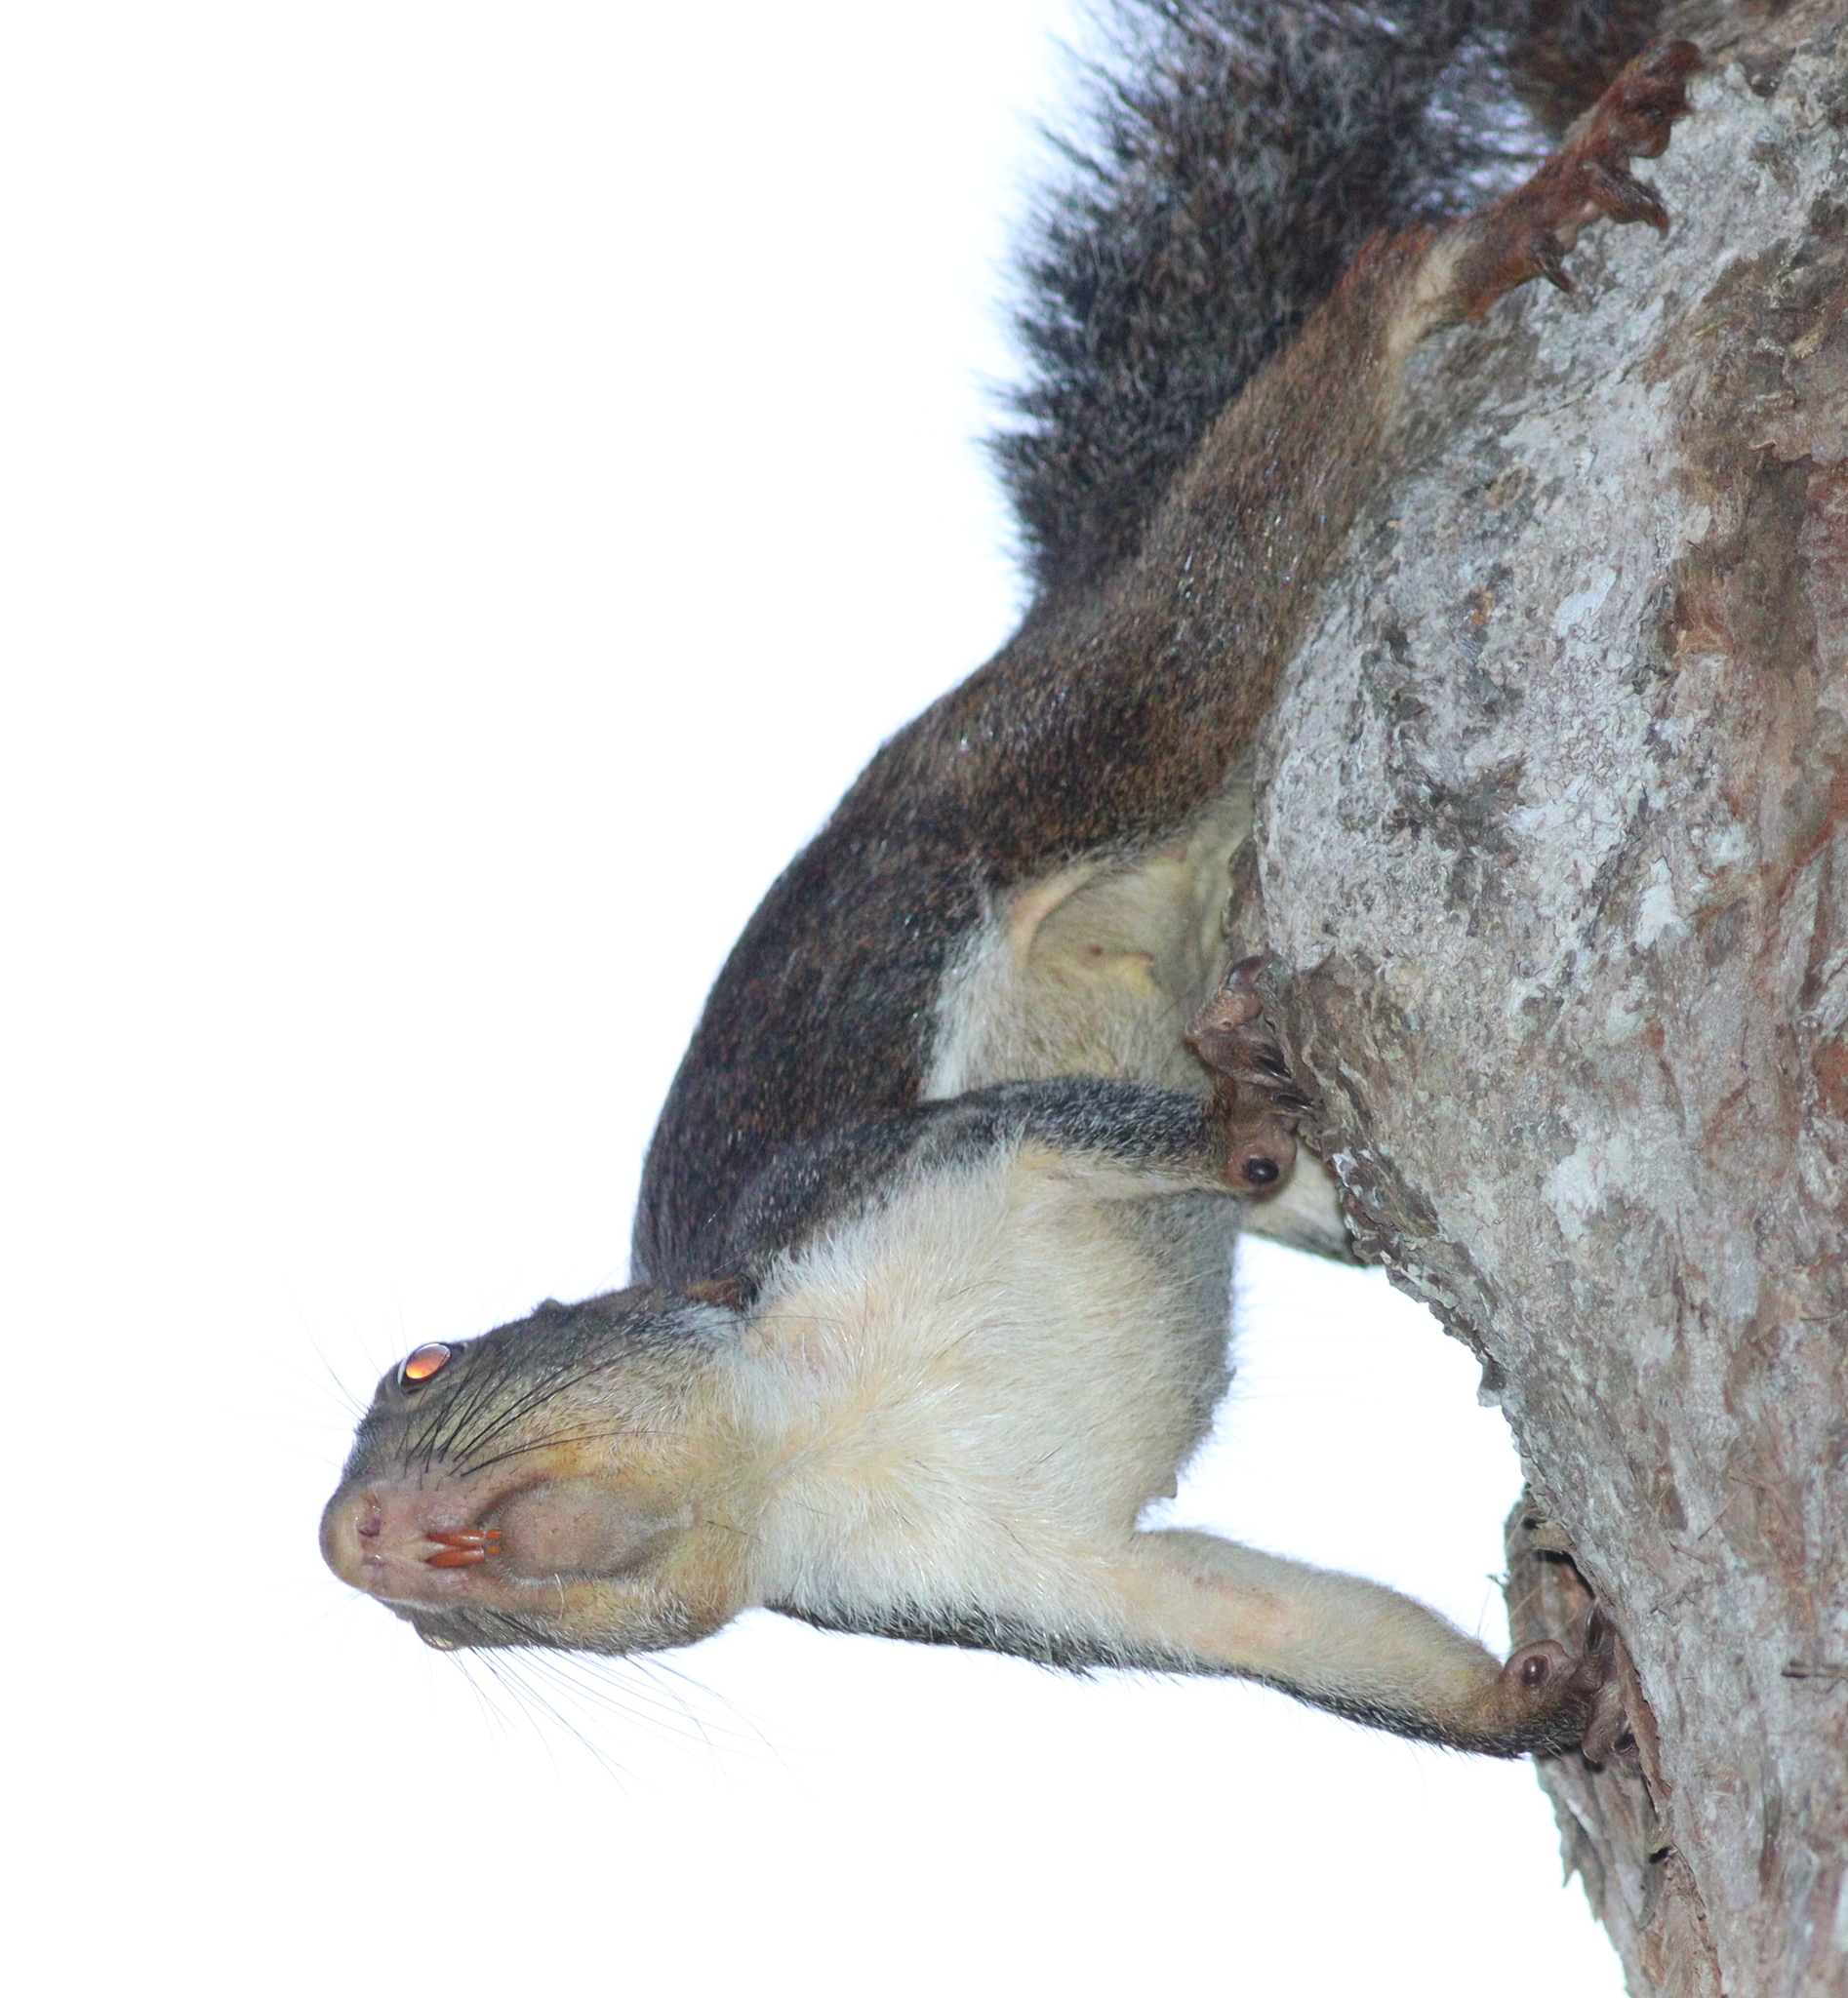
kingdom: Animalia
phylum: Chordata
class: Mammalia
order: Rodentia
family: Sciuridae
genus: Protoxerus
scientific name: Protoxerus stangeri
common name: Forest giant squirrel
